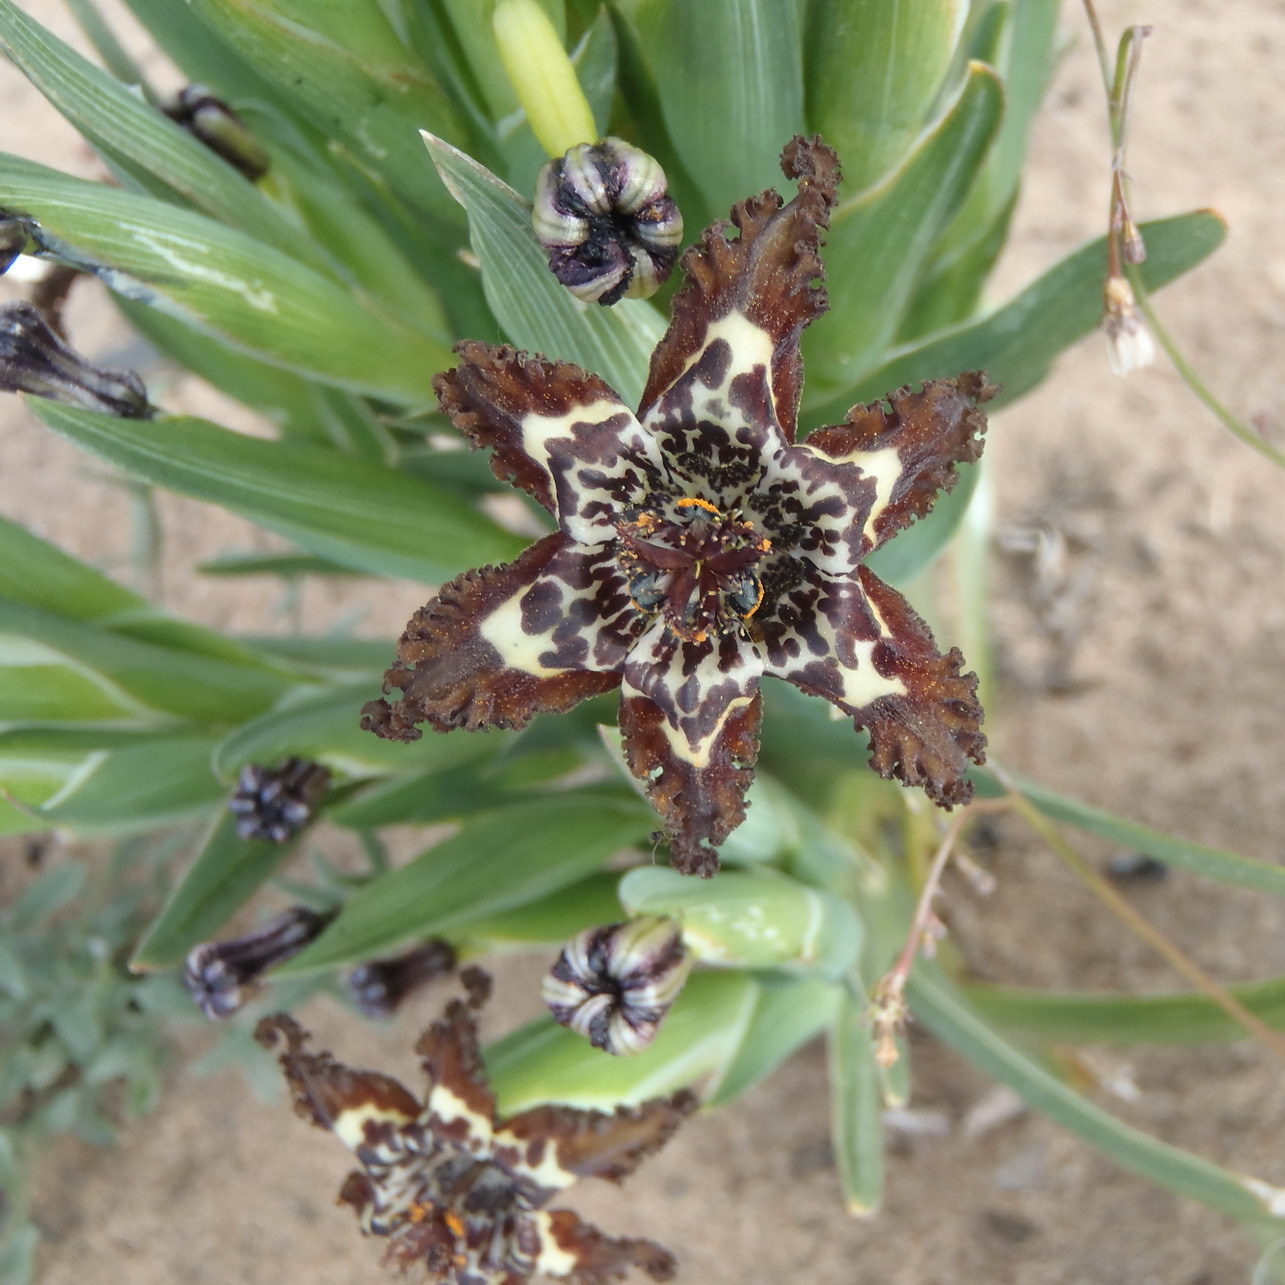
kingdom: Plantae
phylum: Tracheophyta
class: Liliopsida
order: Asparagales
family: Iridaceae
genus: Ferraria
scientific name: Ferraria crispa
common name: Black-flag
